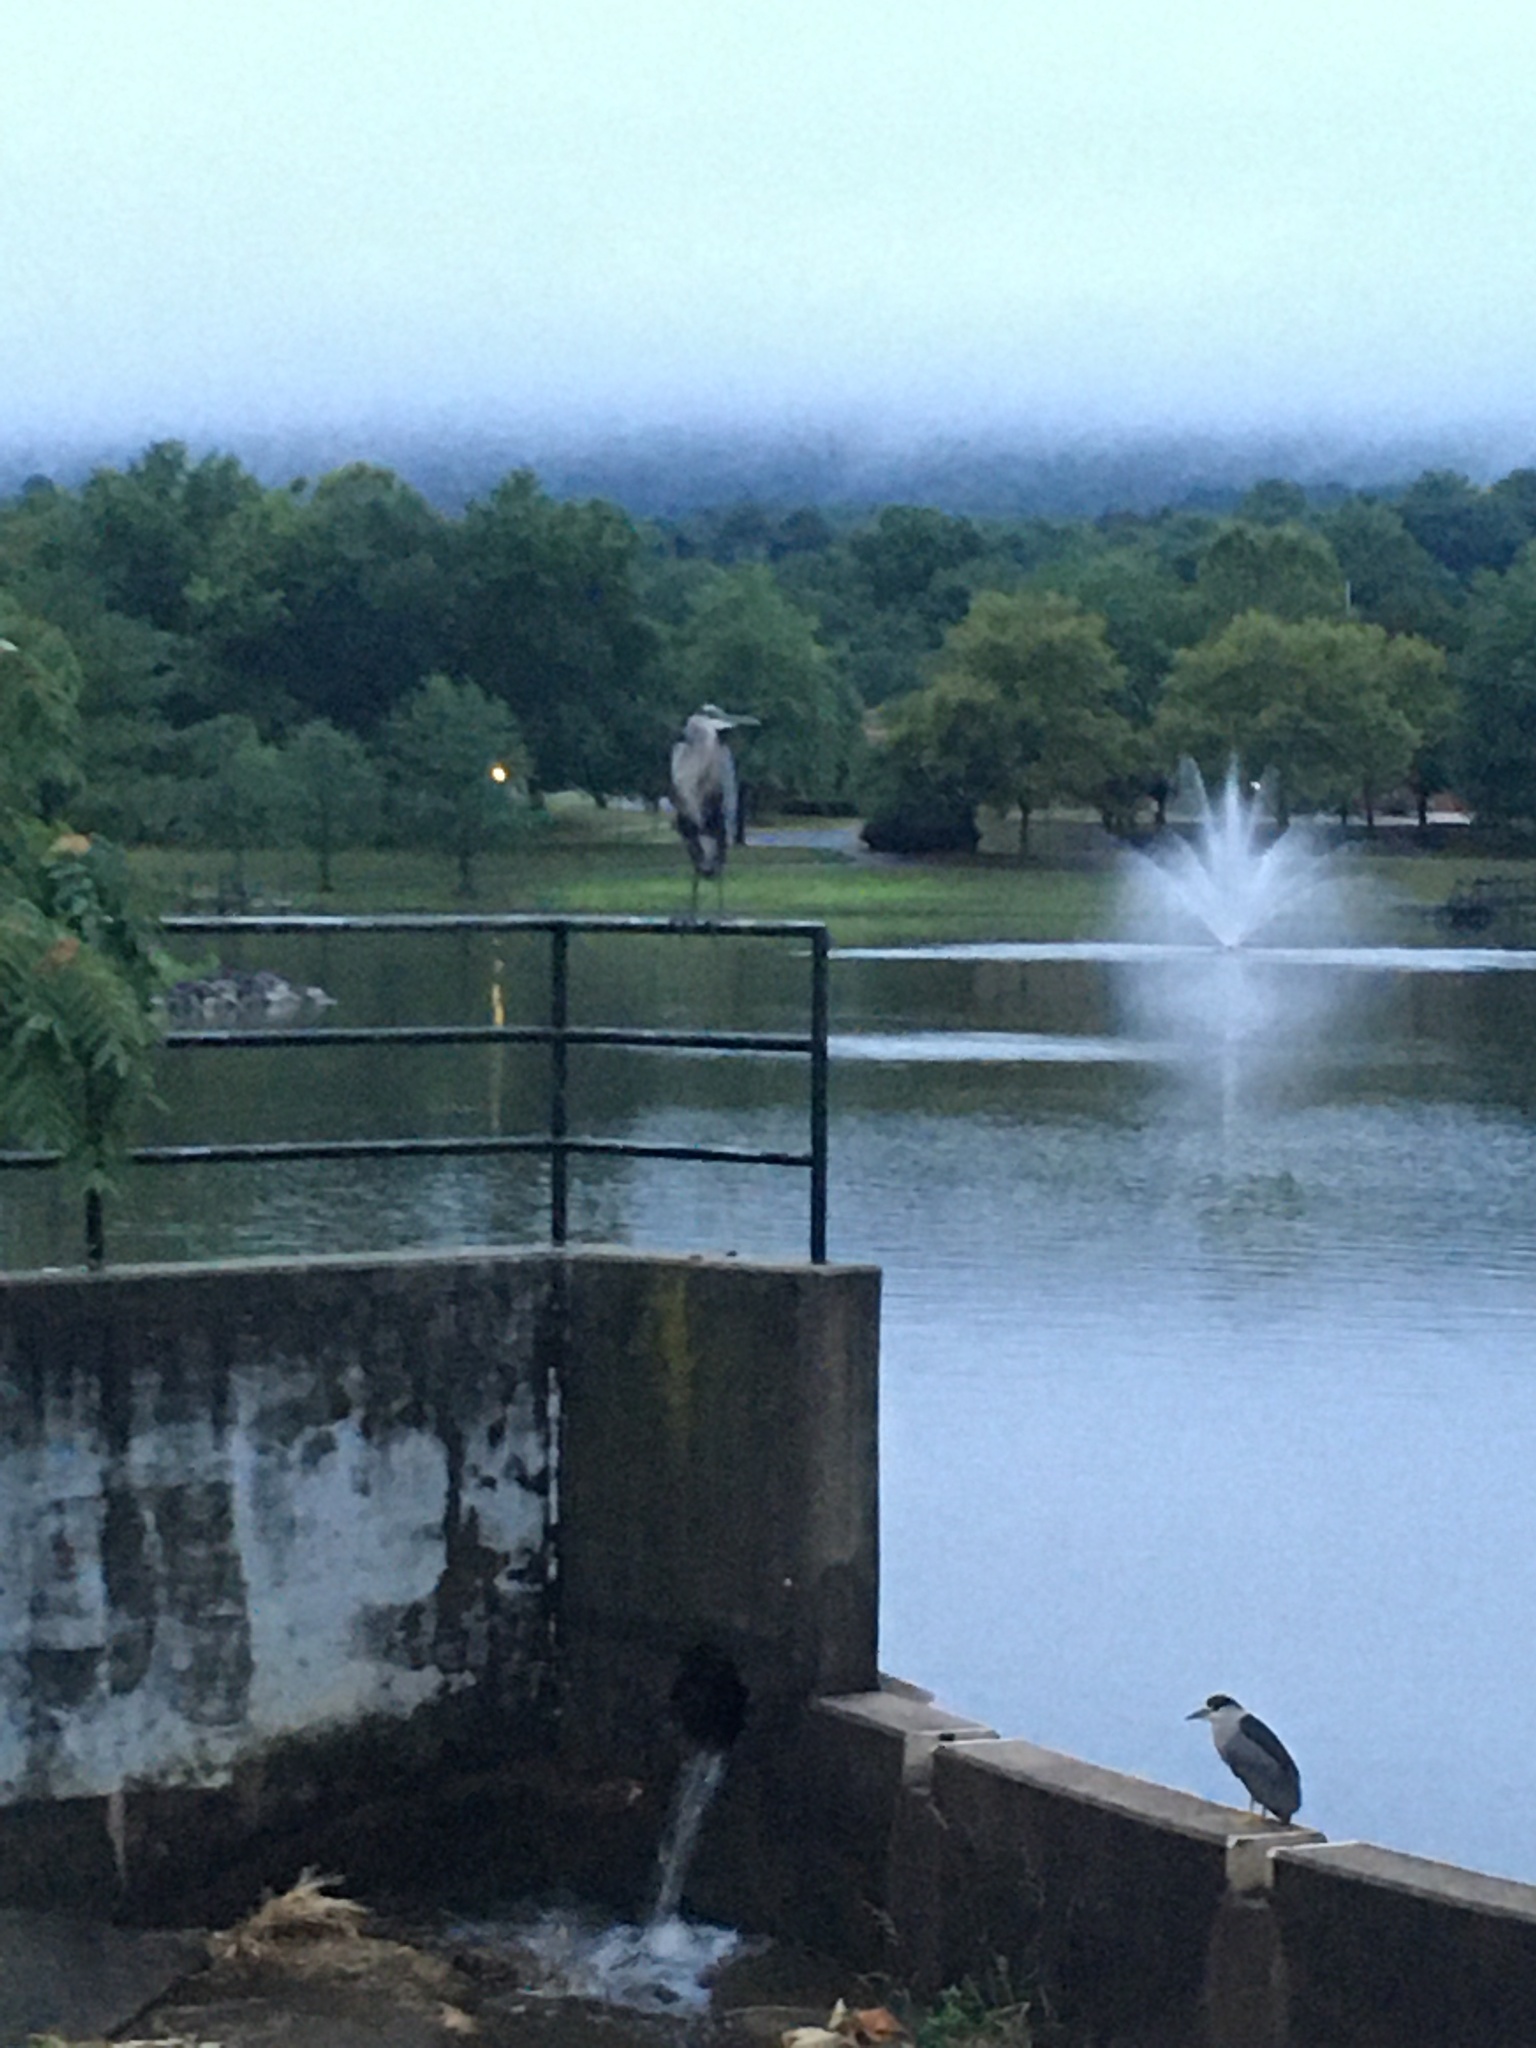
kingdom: Animalia
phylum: Chordata
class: Aves
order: Pelecaniformes
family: Ardeidae
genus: Nycticorax
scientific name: Nycticorax nycticorax
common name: Black-crowned night heron
